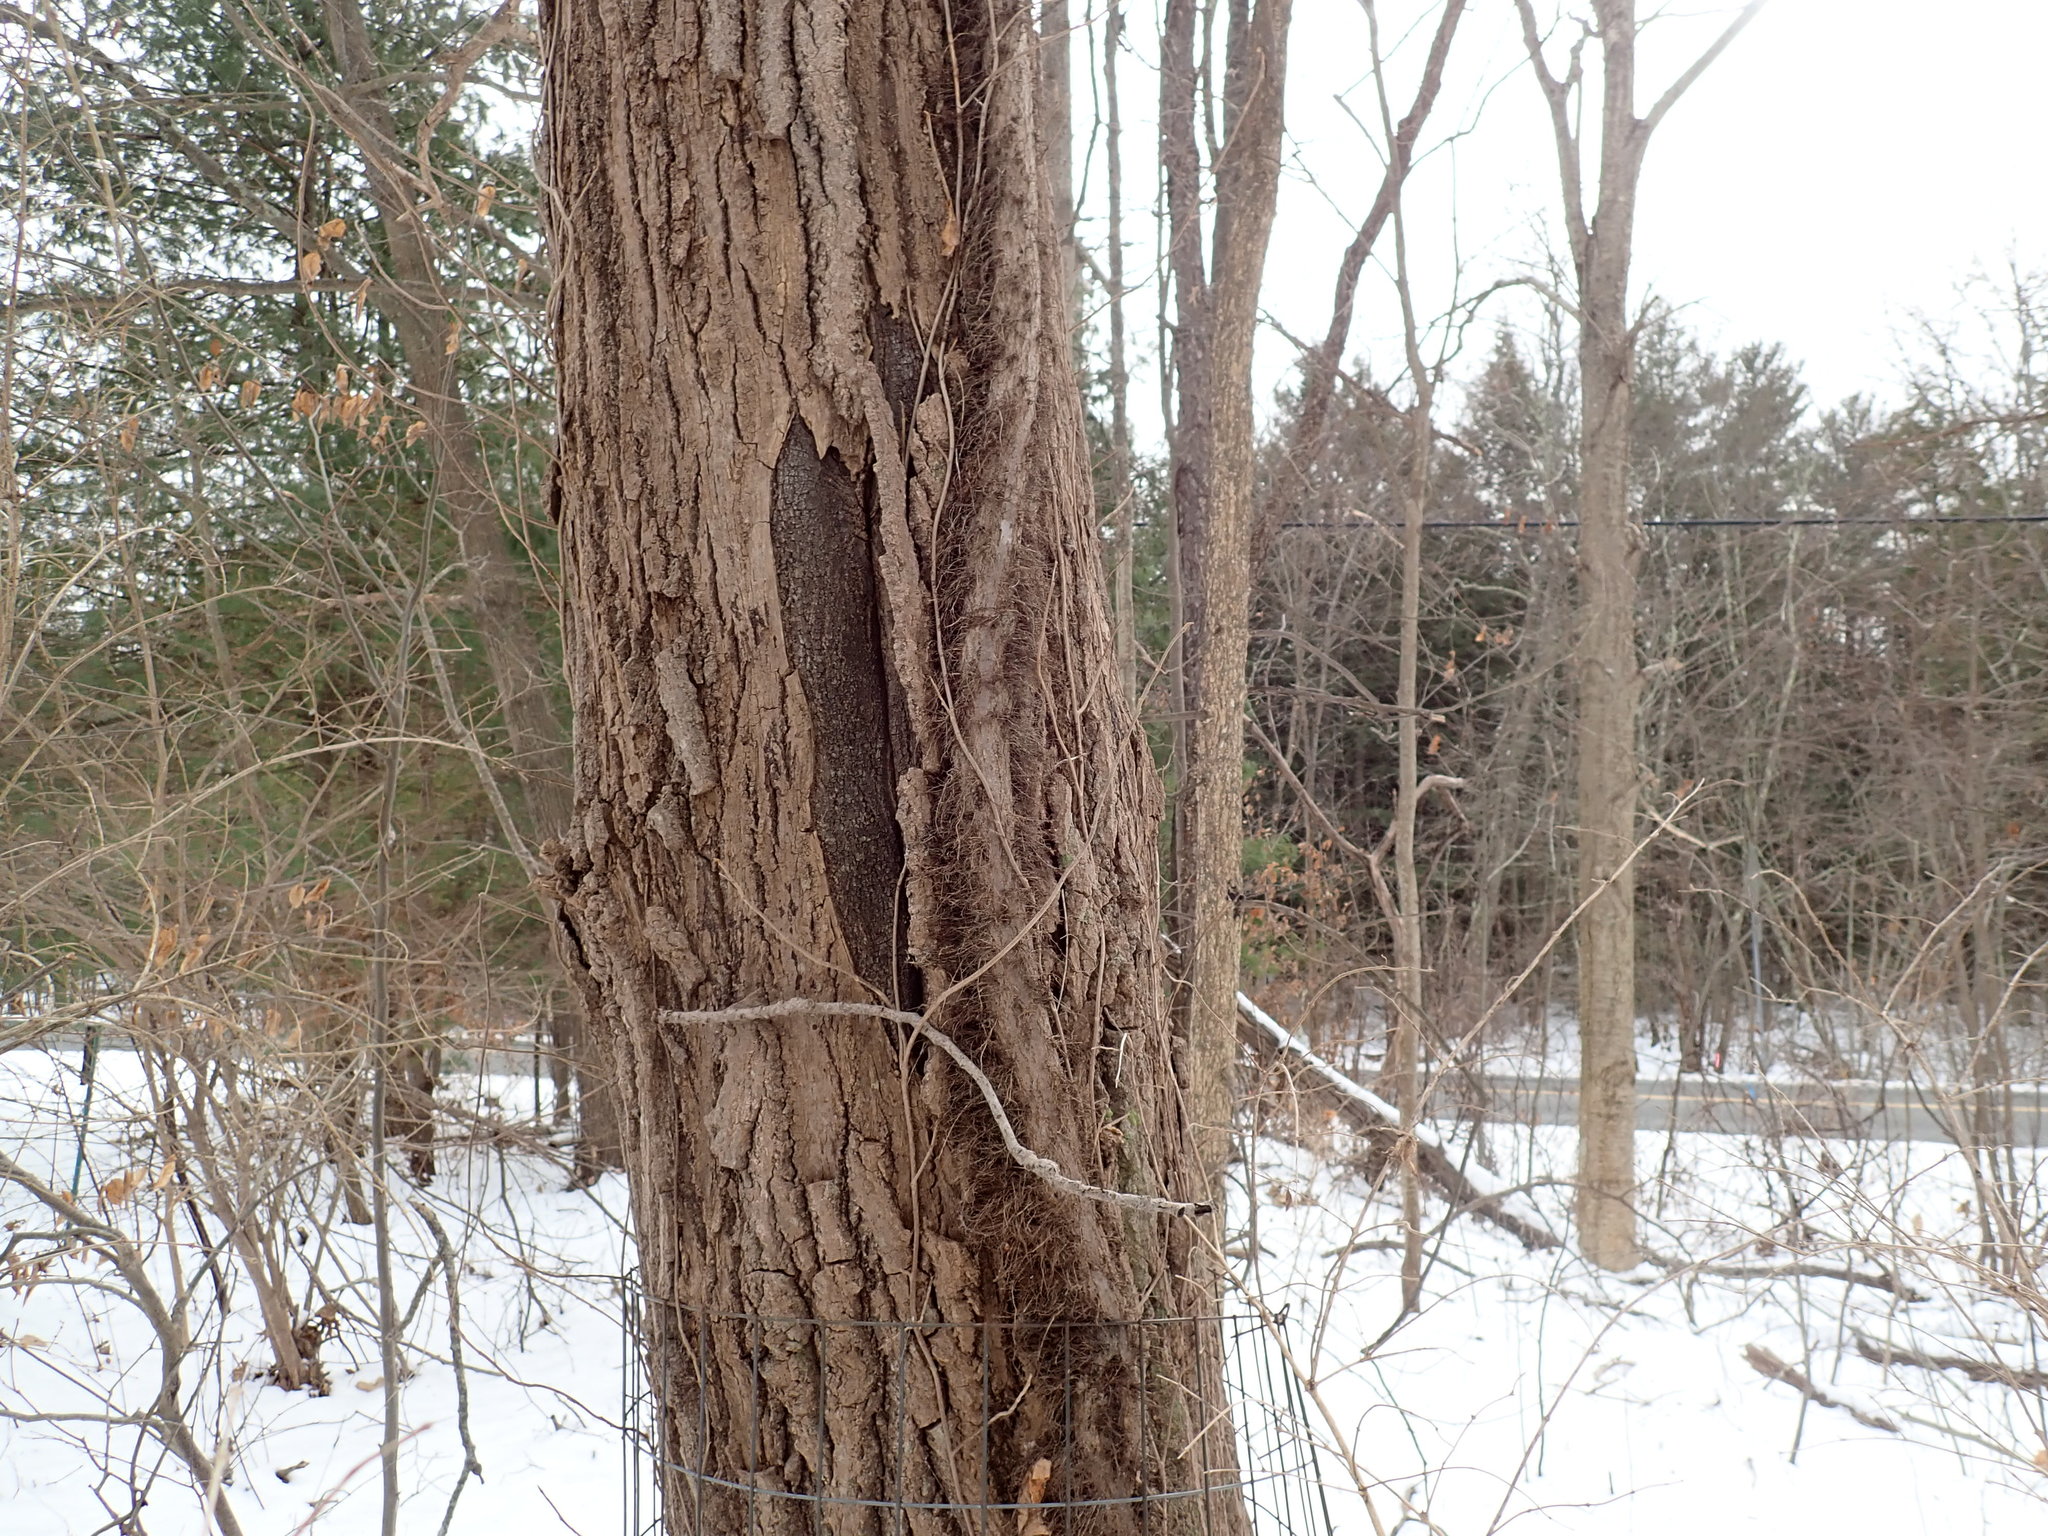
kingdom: Plantae
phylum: Tracheophyta
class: Magnoliopsida
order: Sapindales
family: Anacardiaceae
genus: Toxicodendron
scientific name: Toxicodendron radicans
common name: Poison ivy
